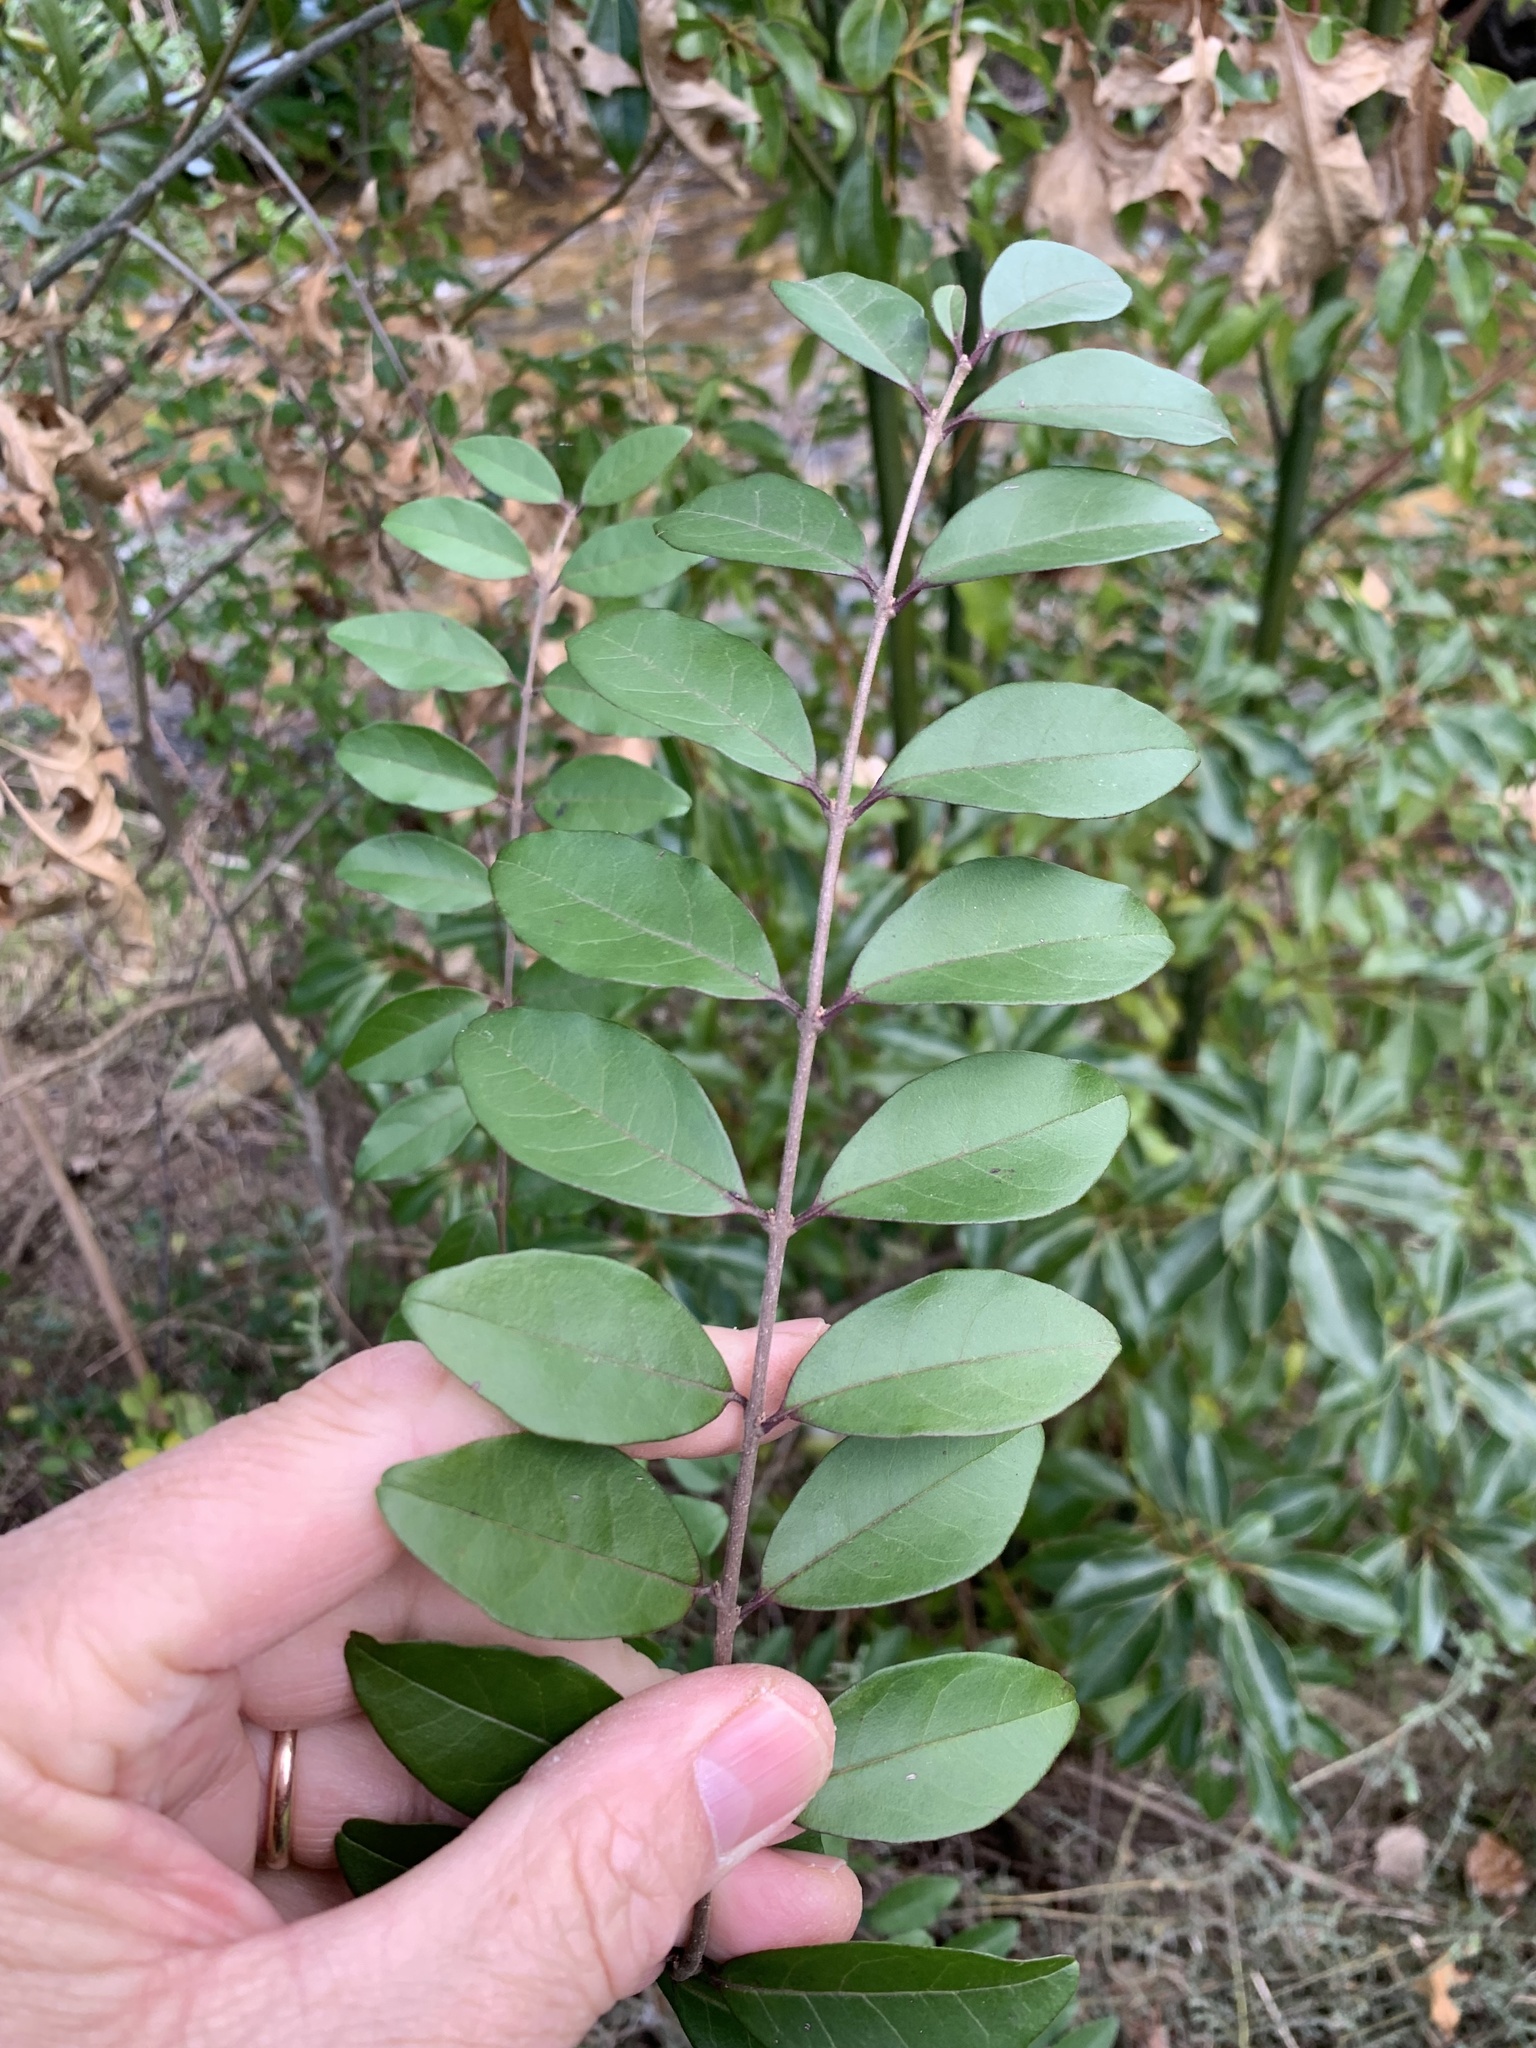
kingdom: Plantae
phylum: Tracheophyta
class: Magnoliopsida
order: Lamiales
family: Oleaceae
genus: Ligustrum
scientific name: Ligustrum sinense
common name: Chinese privet
